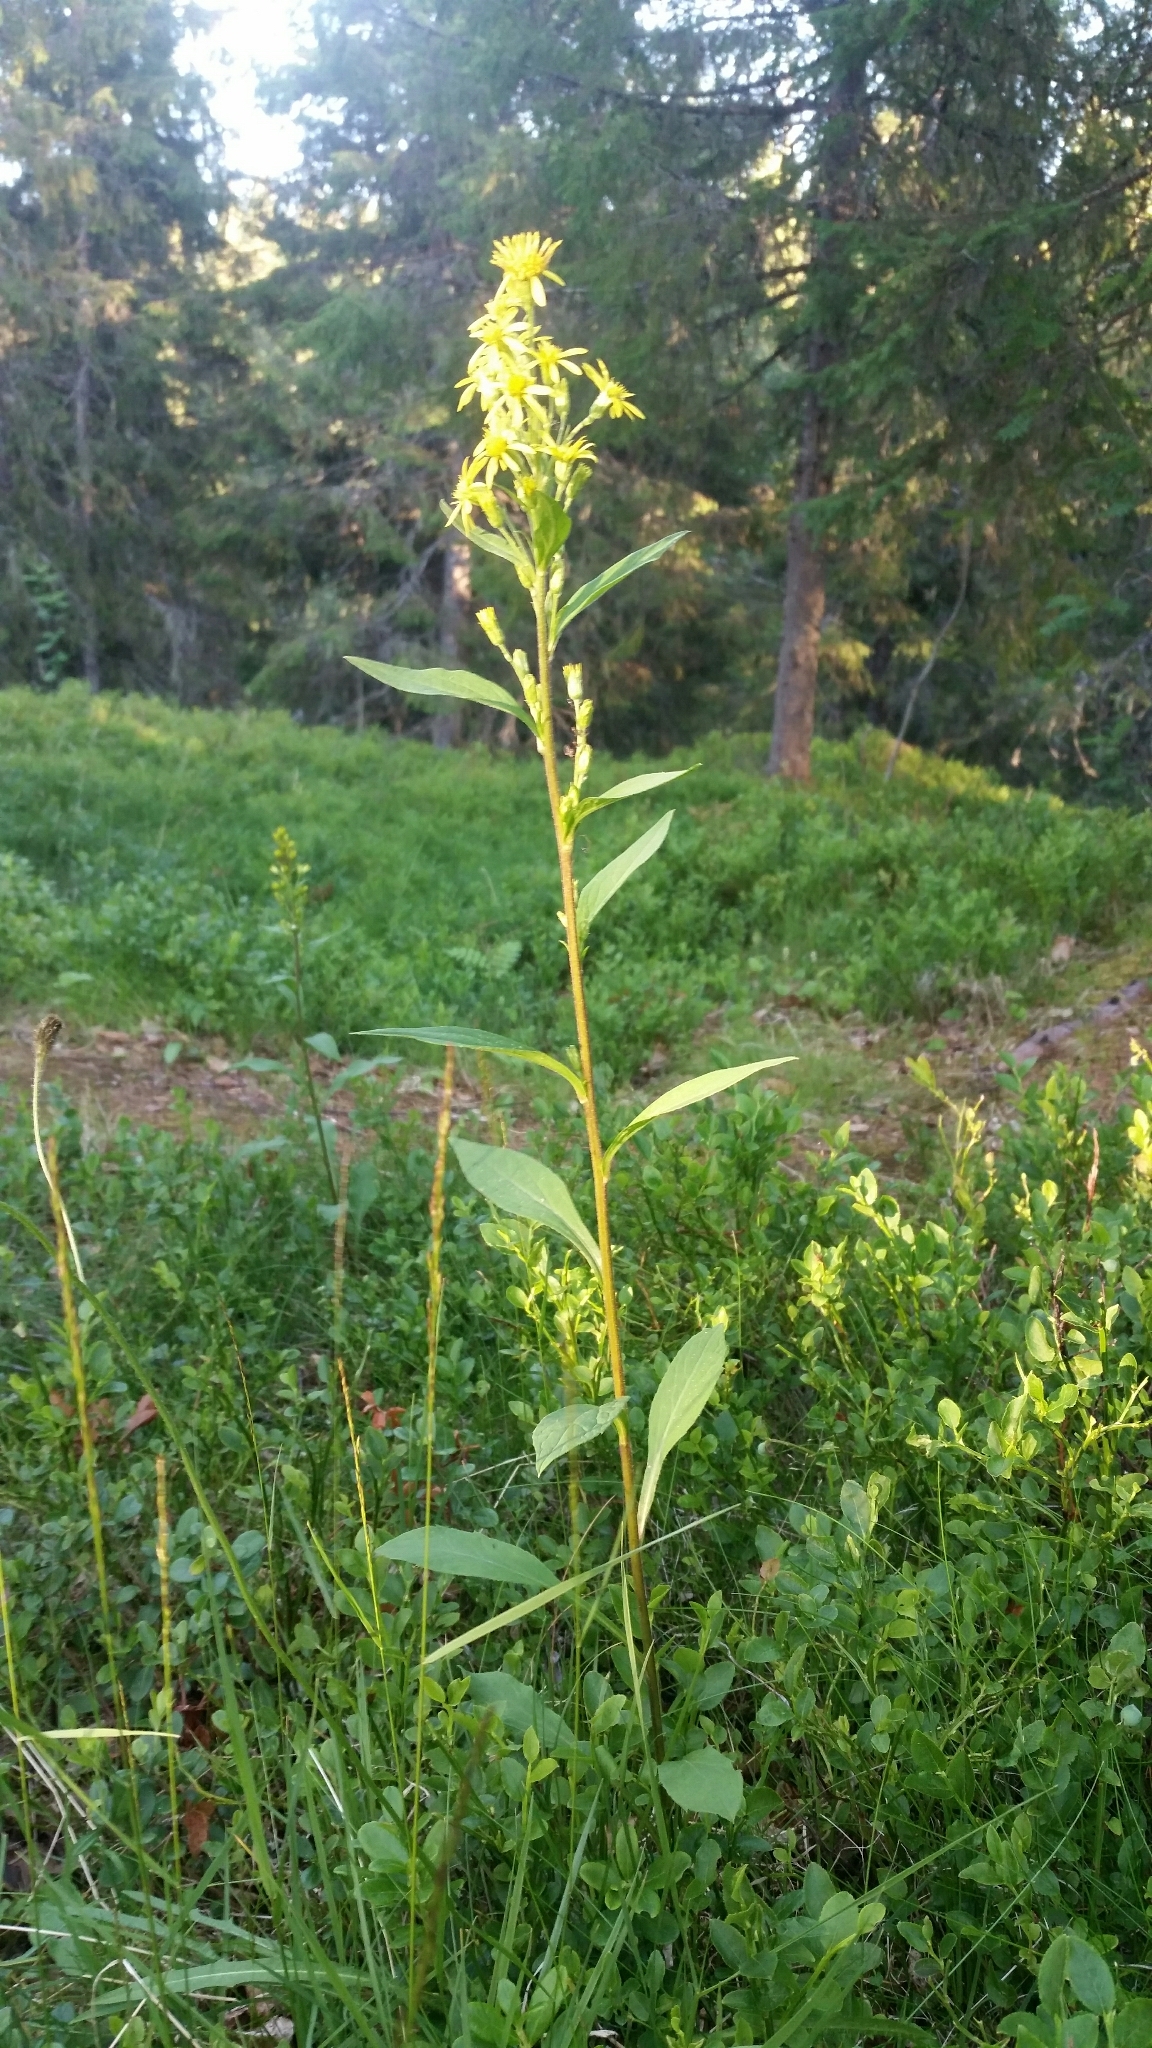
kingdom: Plantae
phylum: Tracheophyta
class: Magnoliopsida
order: Asterales
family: Asteraceae
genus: Solidago
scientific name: Solidago virgaurea
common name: Goldenrod
